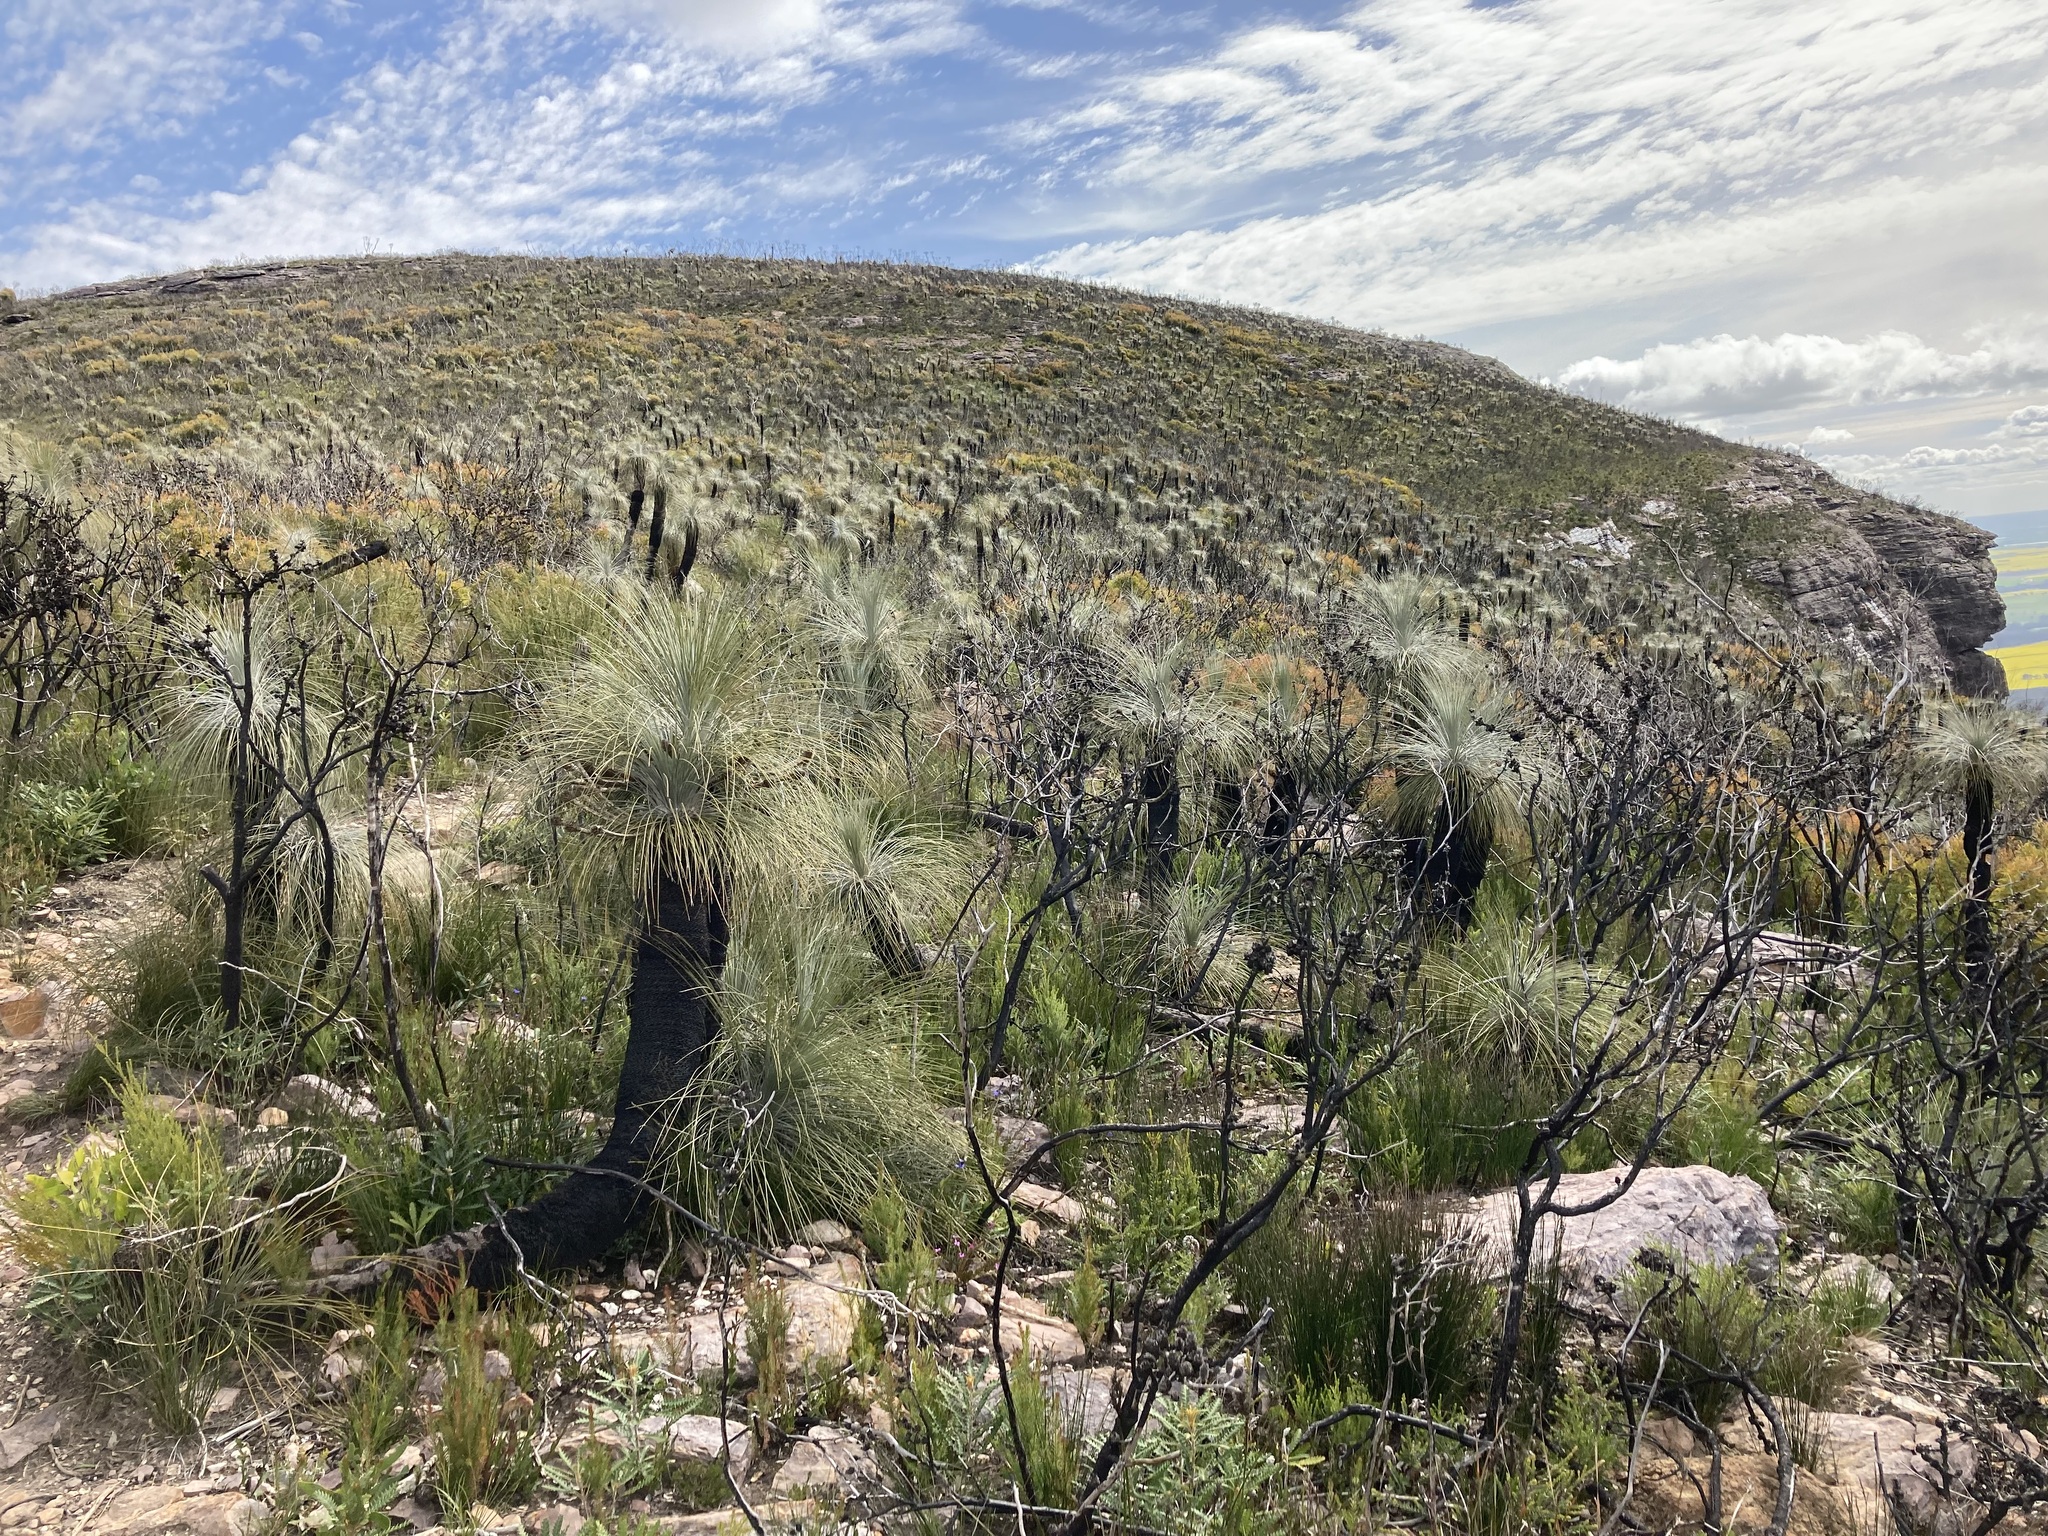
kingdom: Plantae
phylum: Tracheophyta
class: Liliopsida
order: Arecales
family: Dasypogonaceae
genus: Kingia
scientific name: Kingia australis
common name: Black gin
